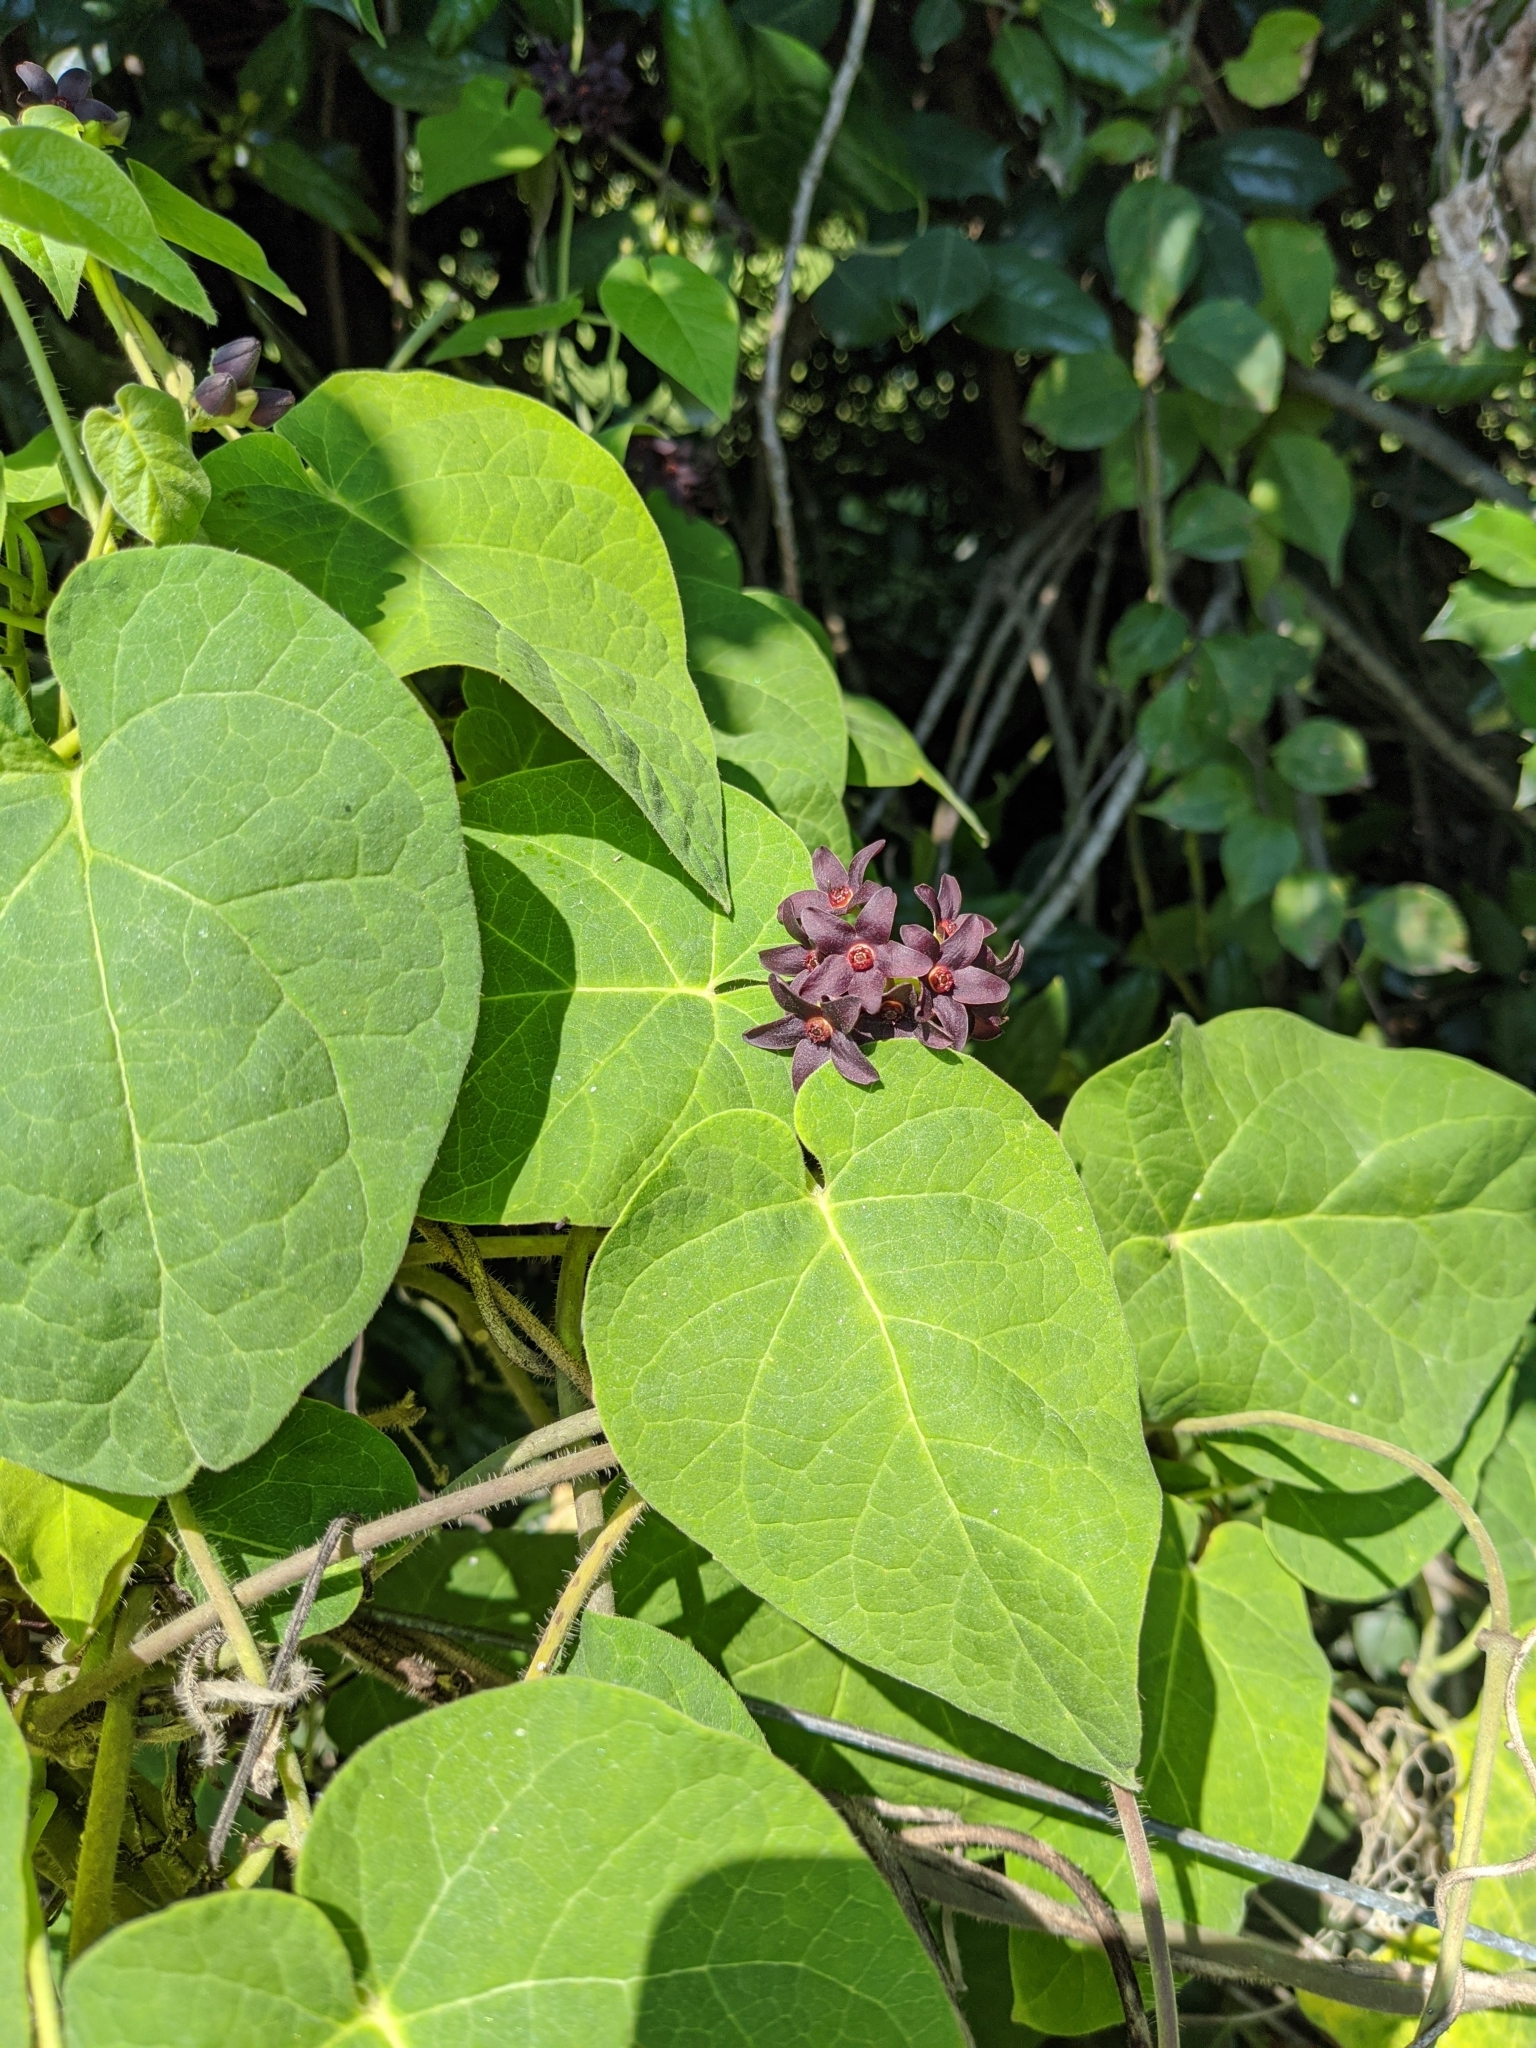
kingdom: Plantae
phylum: Tracheophyta
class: Magnoliopsida
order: Gentianales
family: Apocynaceae
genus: Matelea
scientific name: Matelea carolinensis
